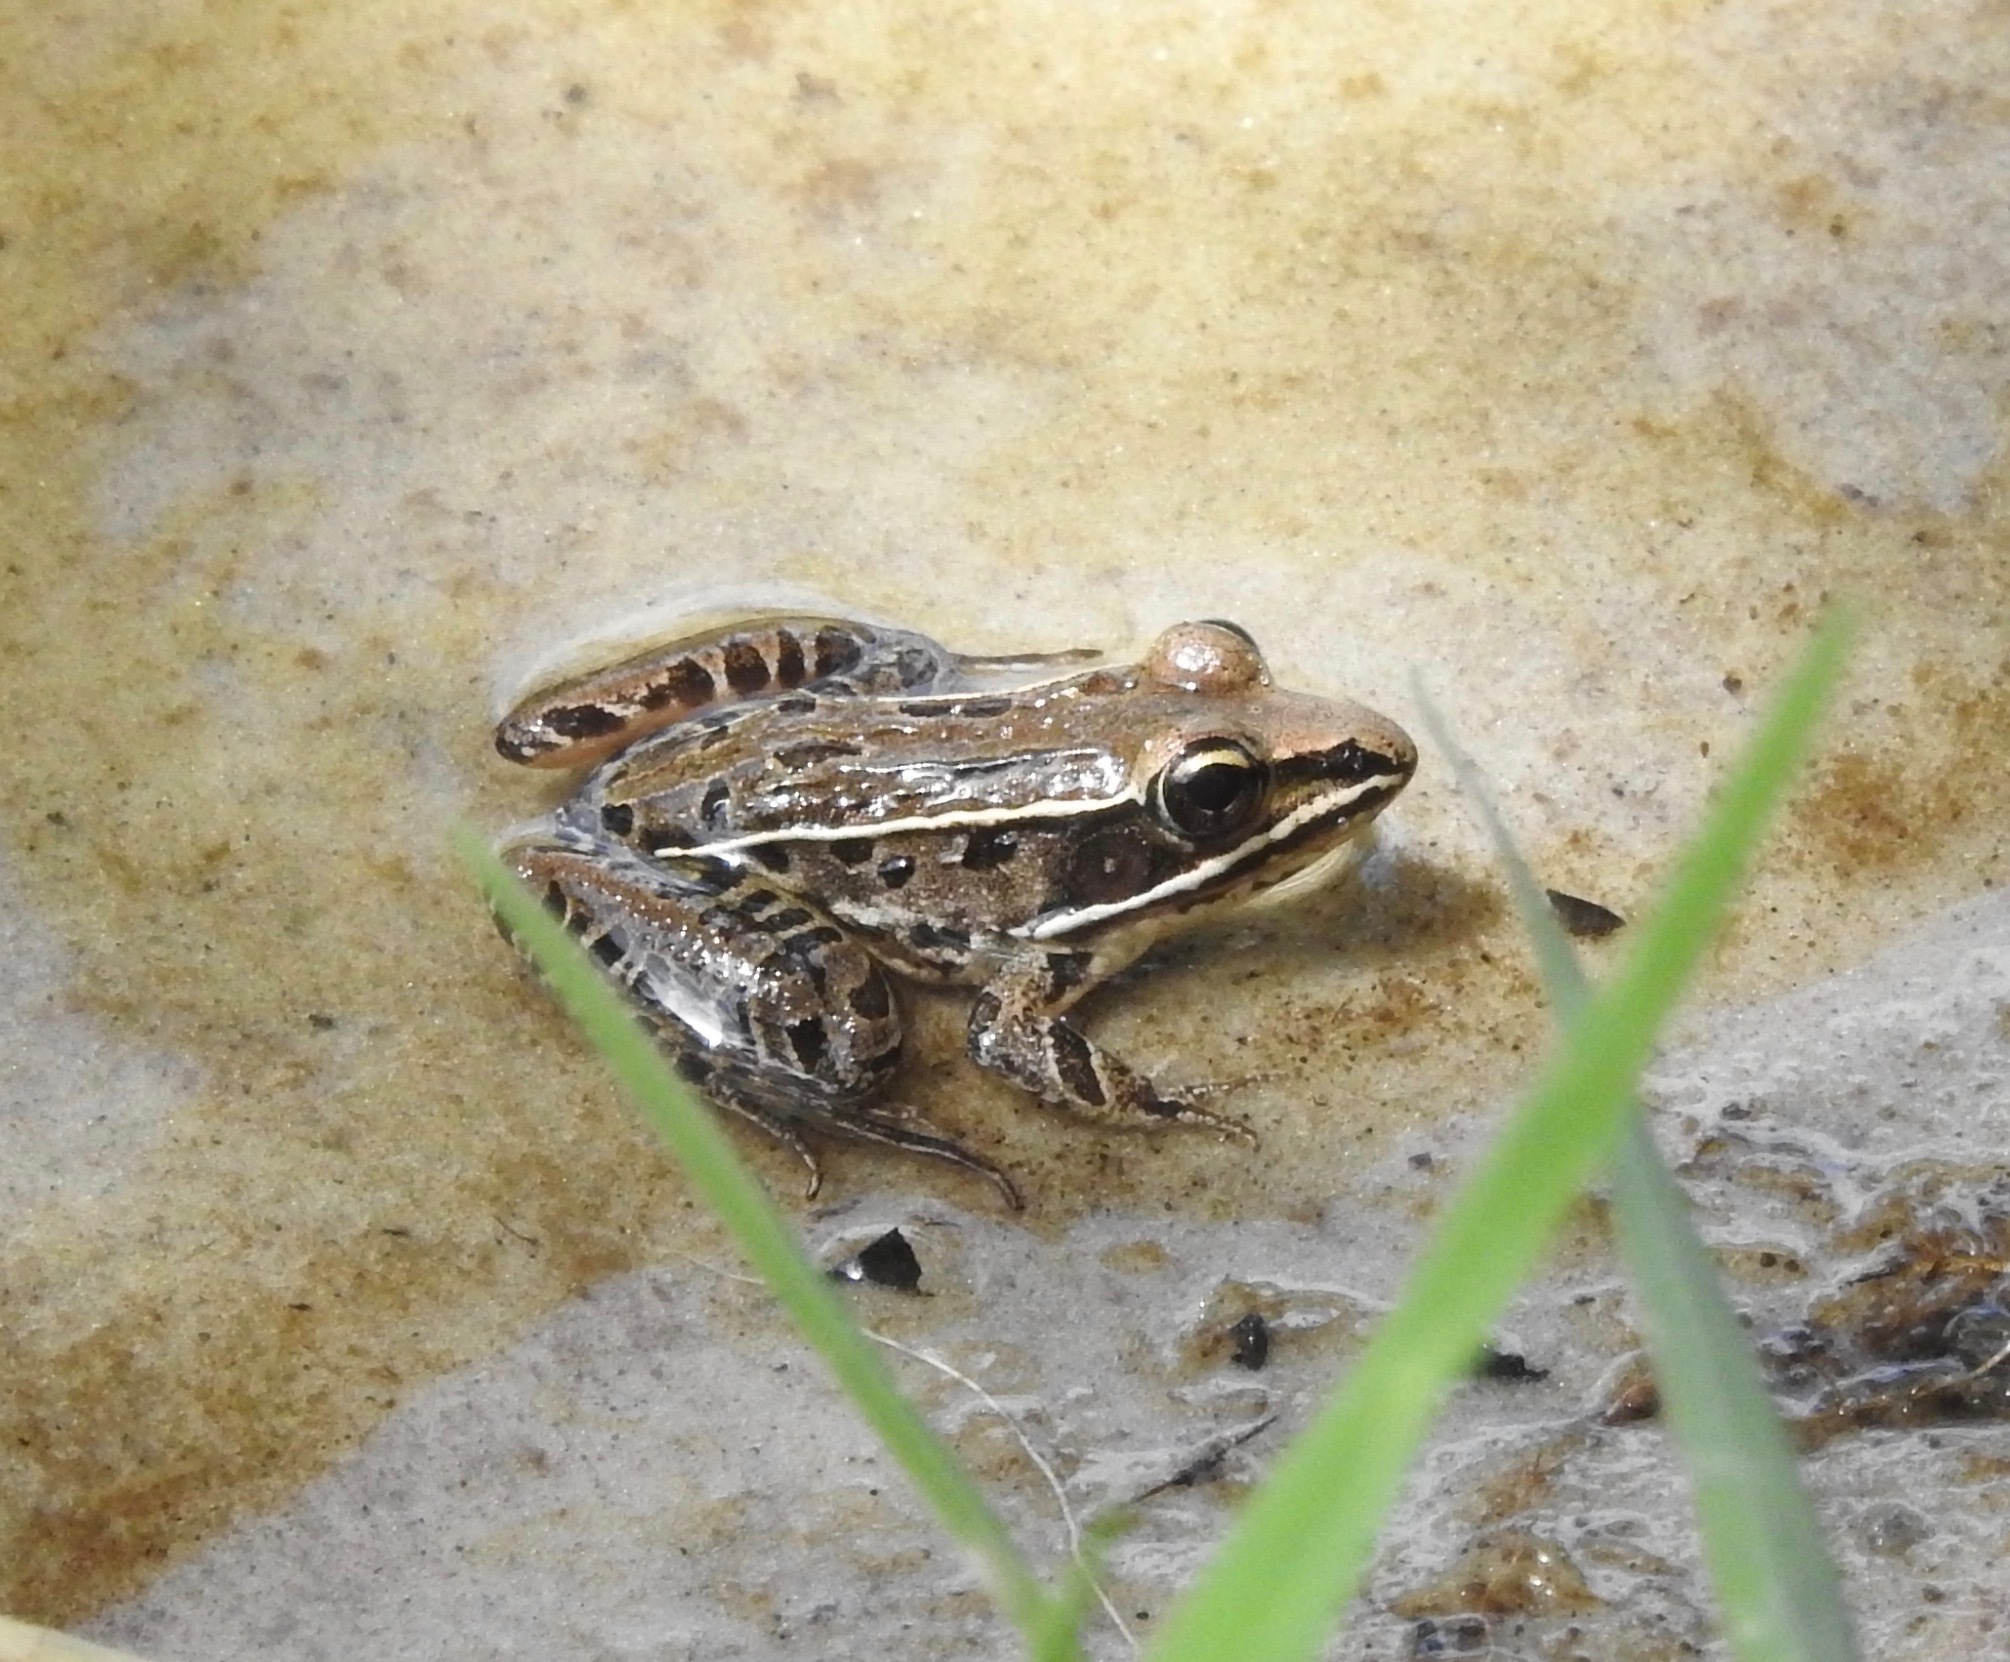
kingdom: Animalia
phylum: Chordata
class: Amphibia
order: Anura
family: Ranidae
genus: Lithobates
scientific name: Lithobates sphenocephalus
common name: Southern leopard frog
